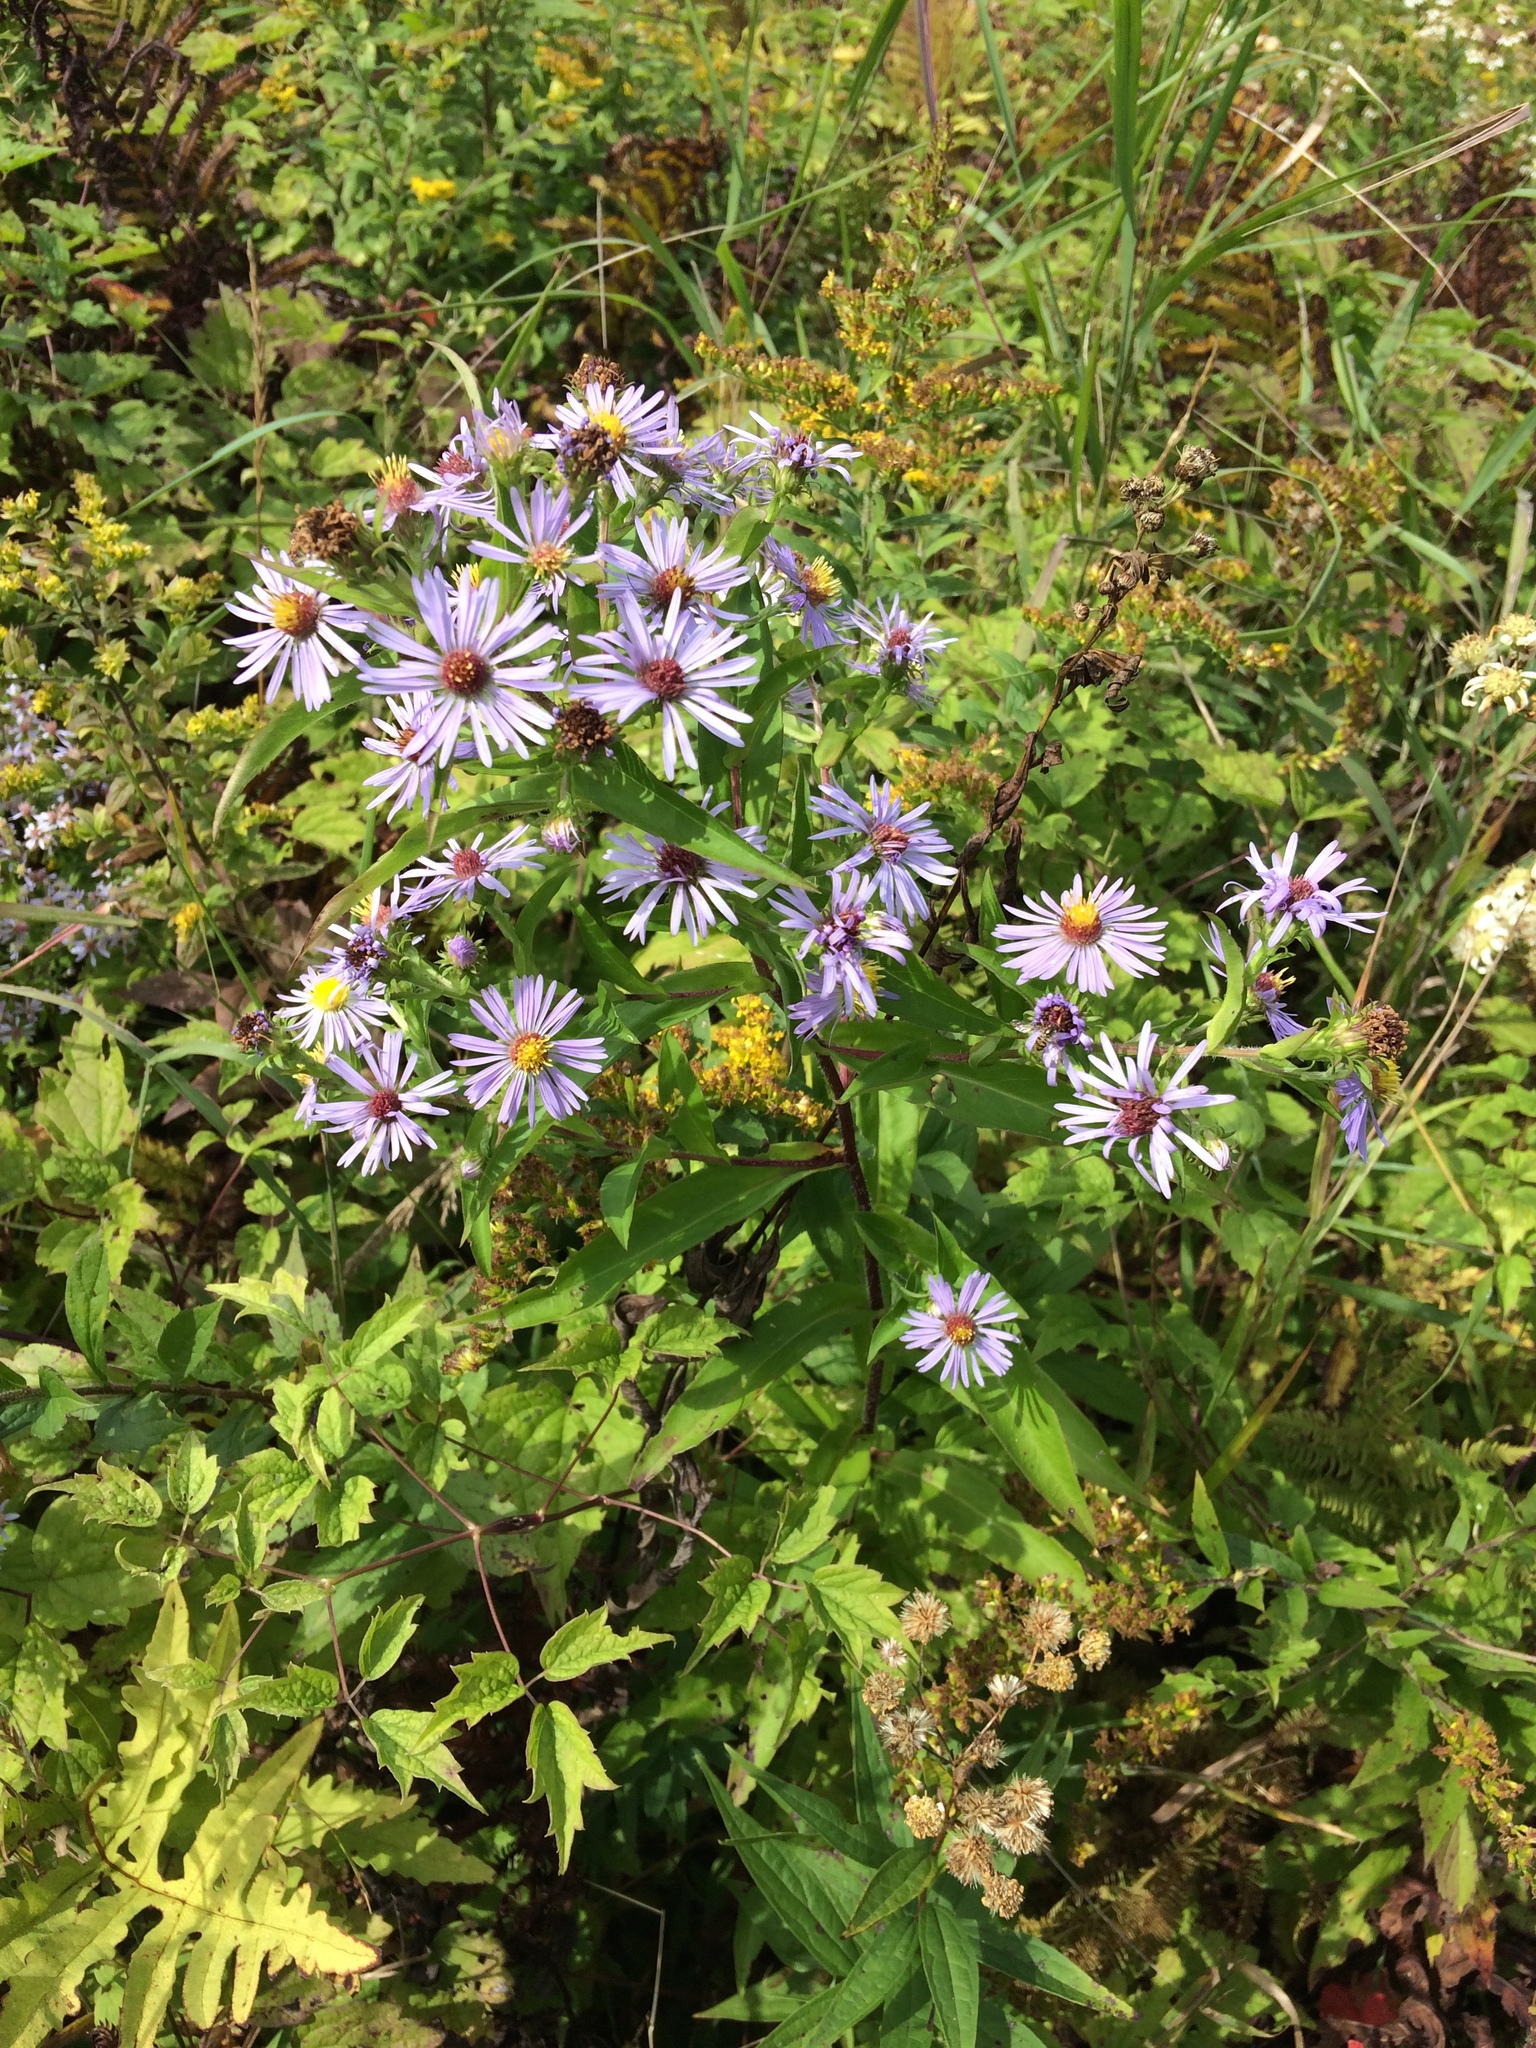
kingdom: Plantae
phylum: Tracheophyta
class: Magnoliopsida
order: Asterales
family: Asteraceae
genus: Symphyotrichum
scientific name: Symphyotrichum puniceum
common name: Bog aster
